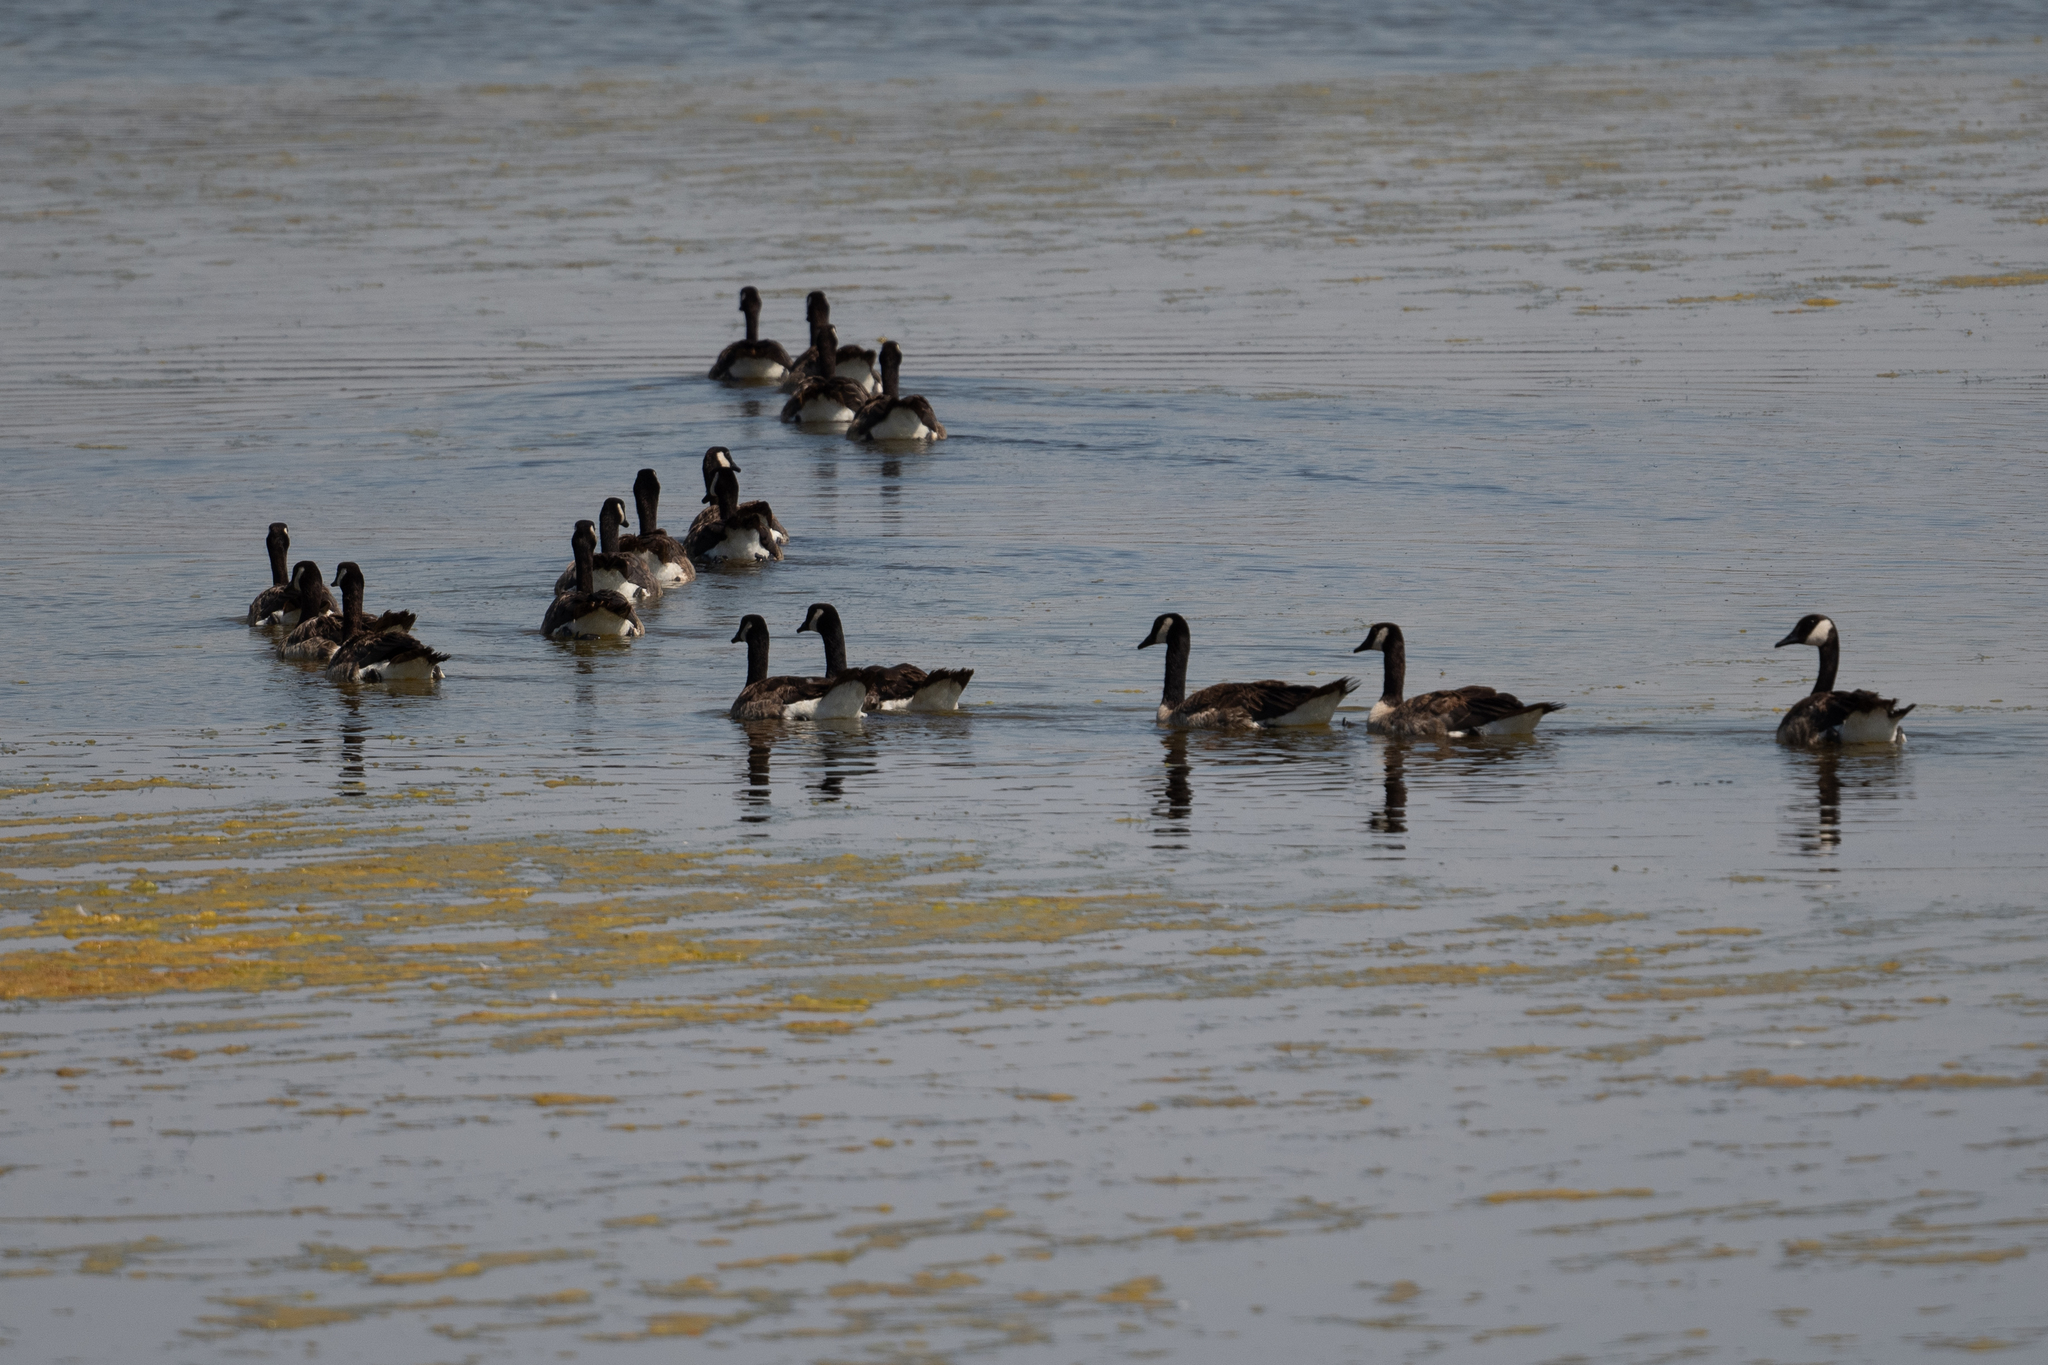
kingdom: Animalia
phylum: Chordata
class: Aves
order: Anseriformes
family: Anatidae
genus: Branta
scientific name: Branta canadensis
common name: Canada goose
